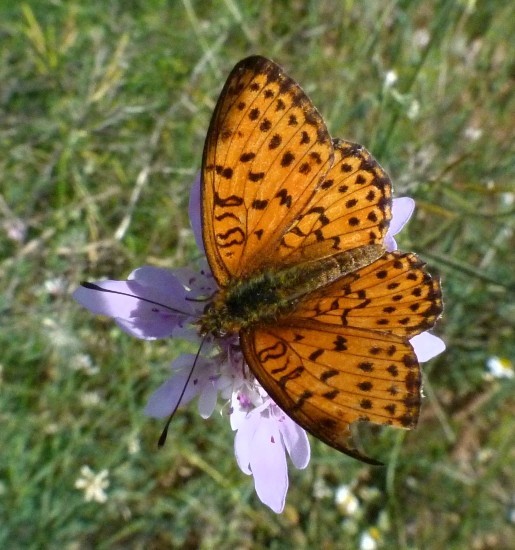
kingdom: Animalia
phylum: Arthropoda
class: Insecta
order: Lepidoptera
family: Nymphalidae
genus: Brenthis
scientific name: Brenthis hecate
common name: Twin-spot fritillary
